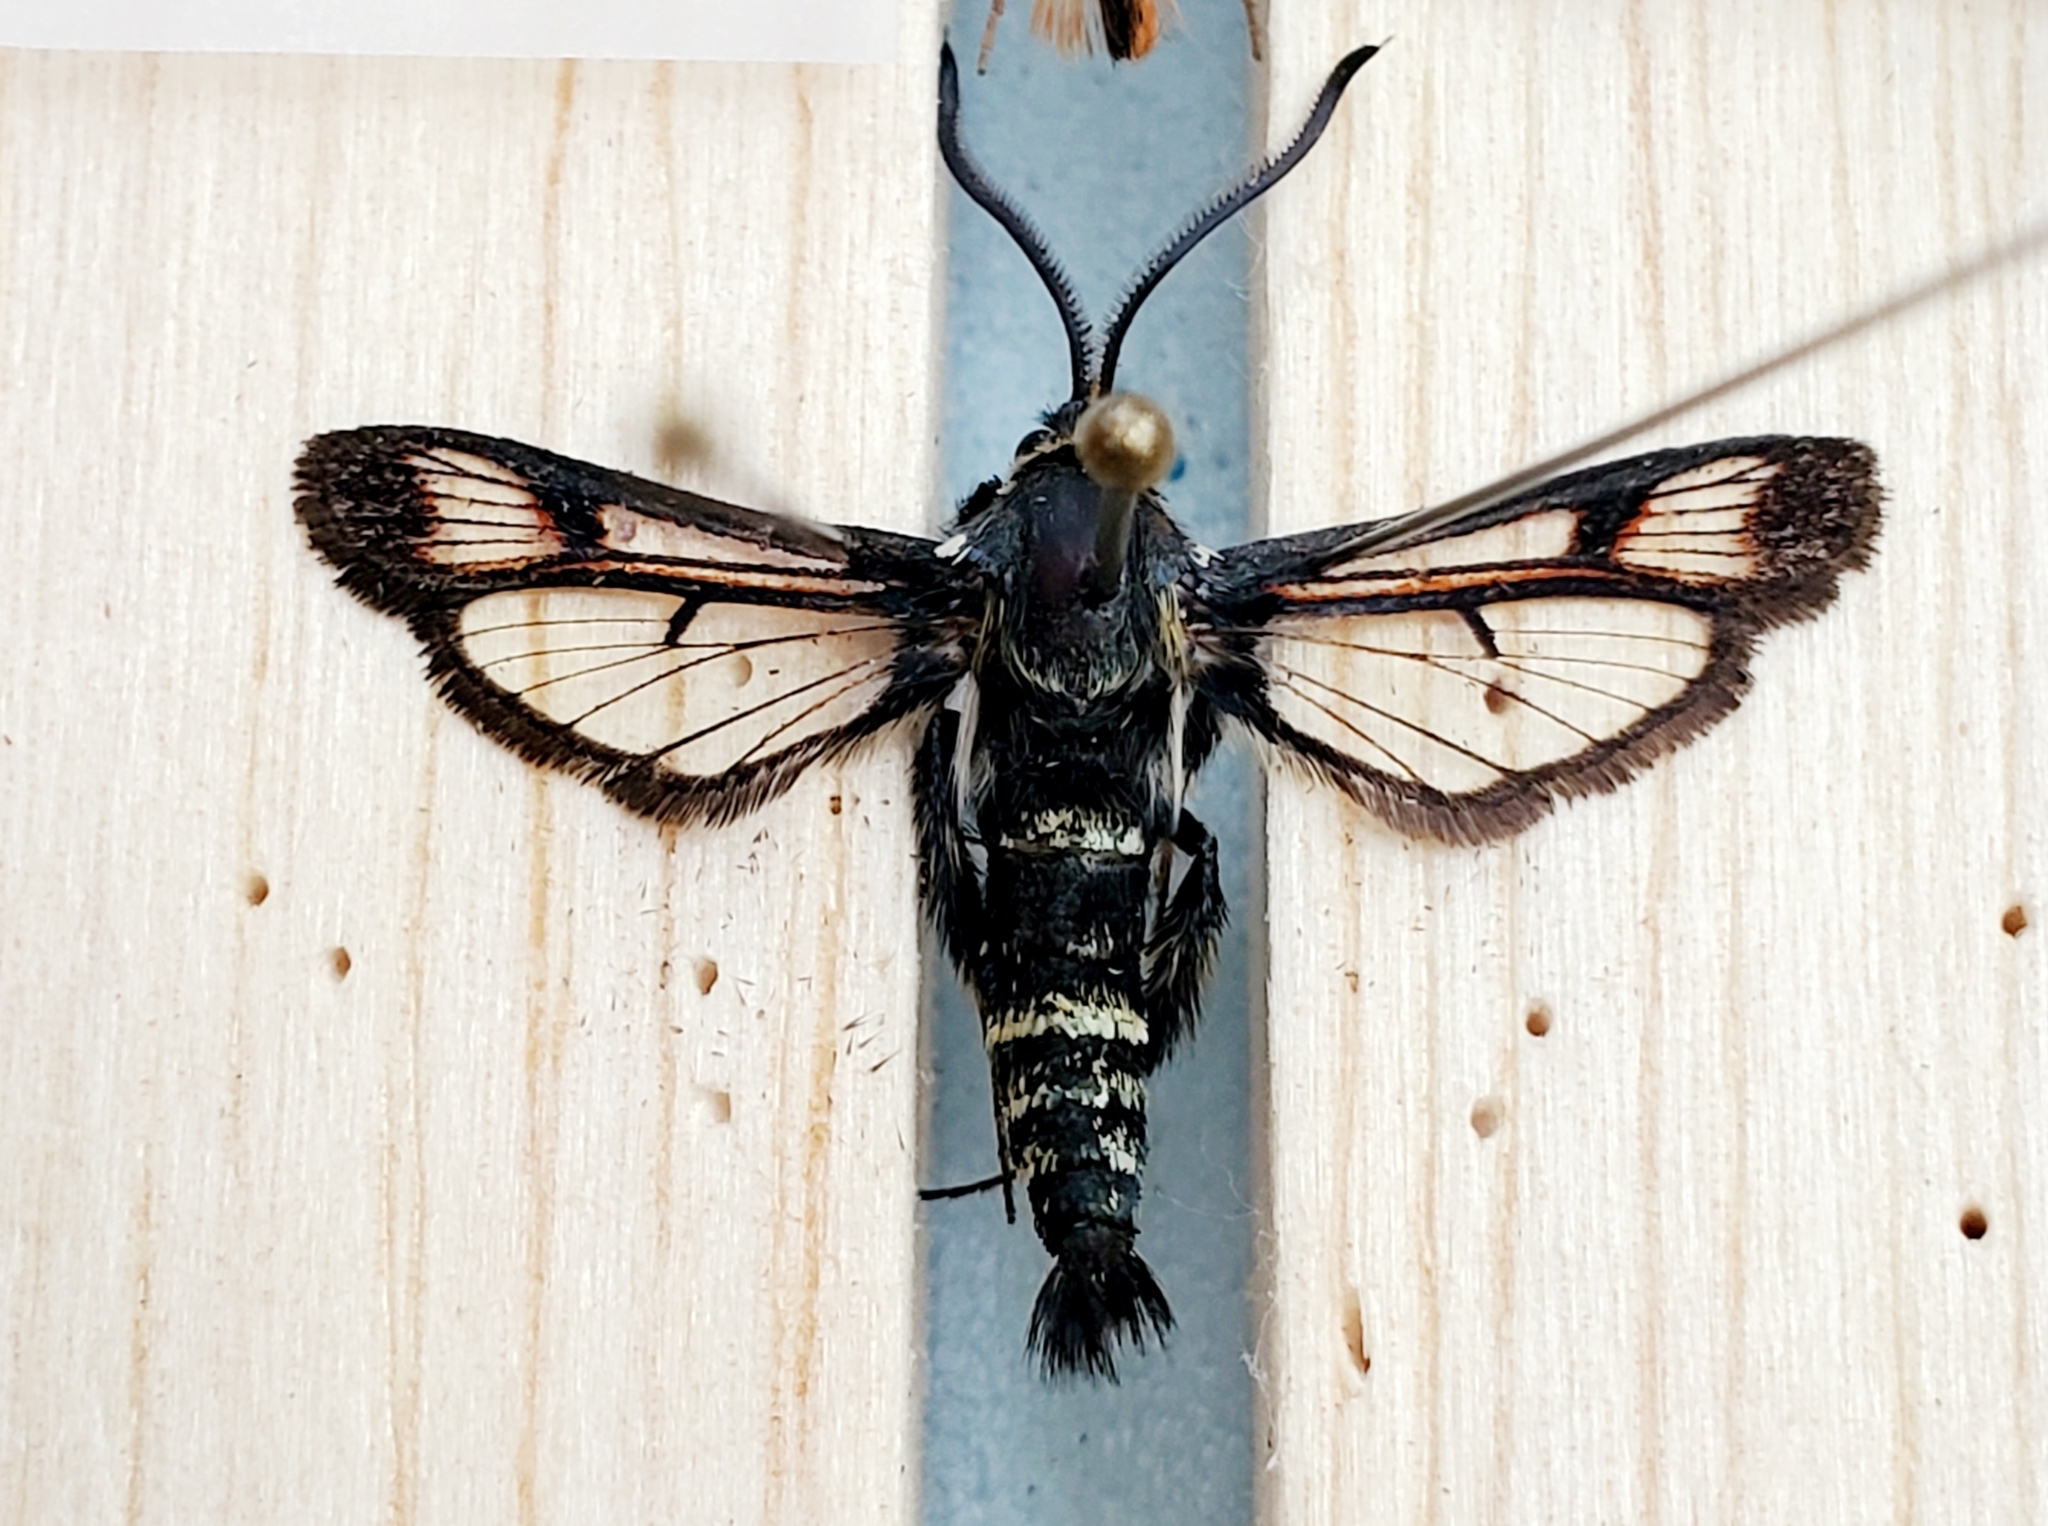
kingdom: Animalia
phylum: Arthropoda
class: Insecta
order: Lepidoptera
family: Sesiidae
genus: Albuna
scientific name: Albuna pyramidalis
